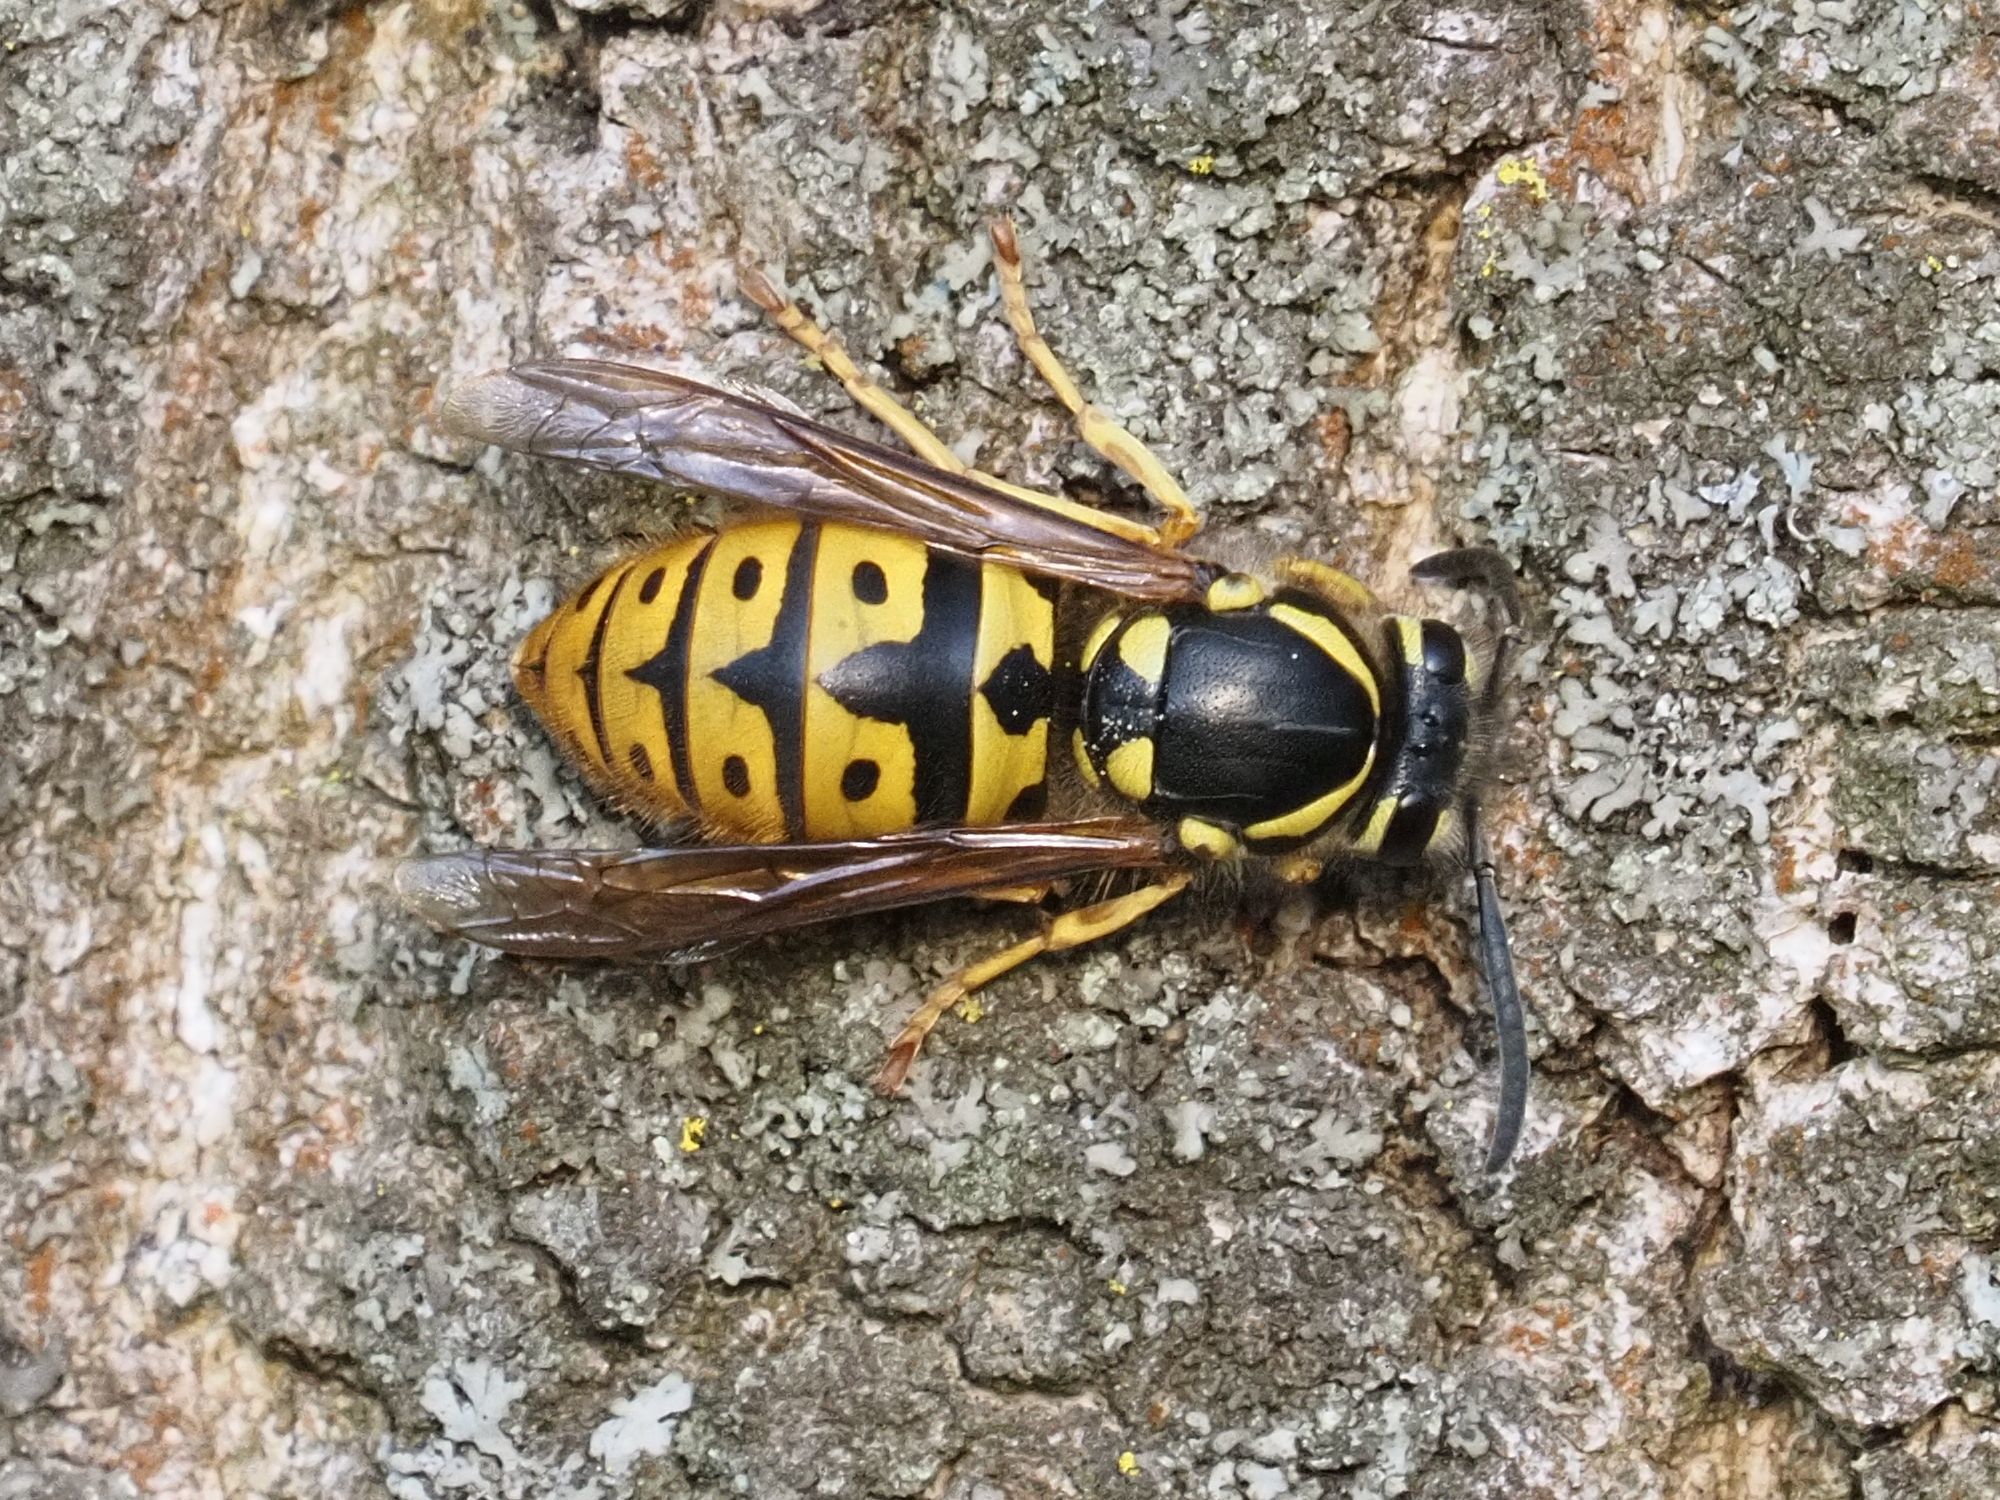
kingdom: Animalia
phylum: Arthropoda
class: Insecta
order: Hymenoptera
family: Vespidae
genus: Vespula
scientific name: Vespula germanica
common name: German wasp
